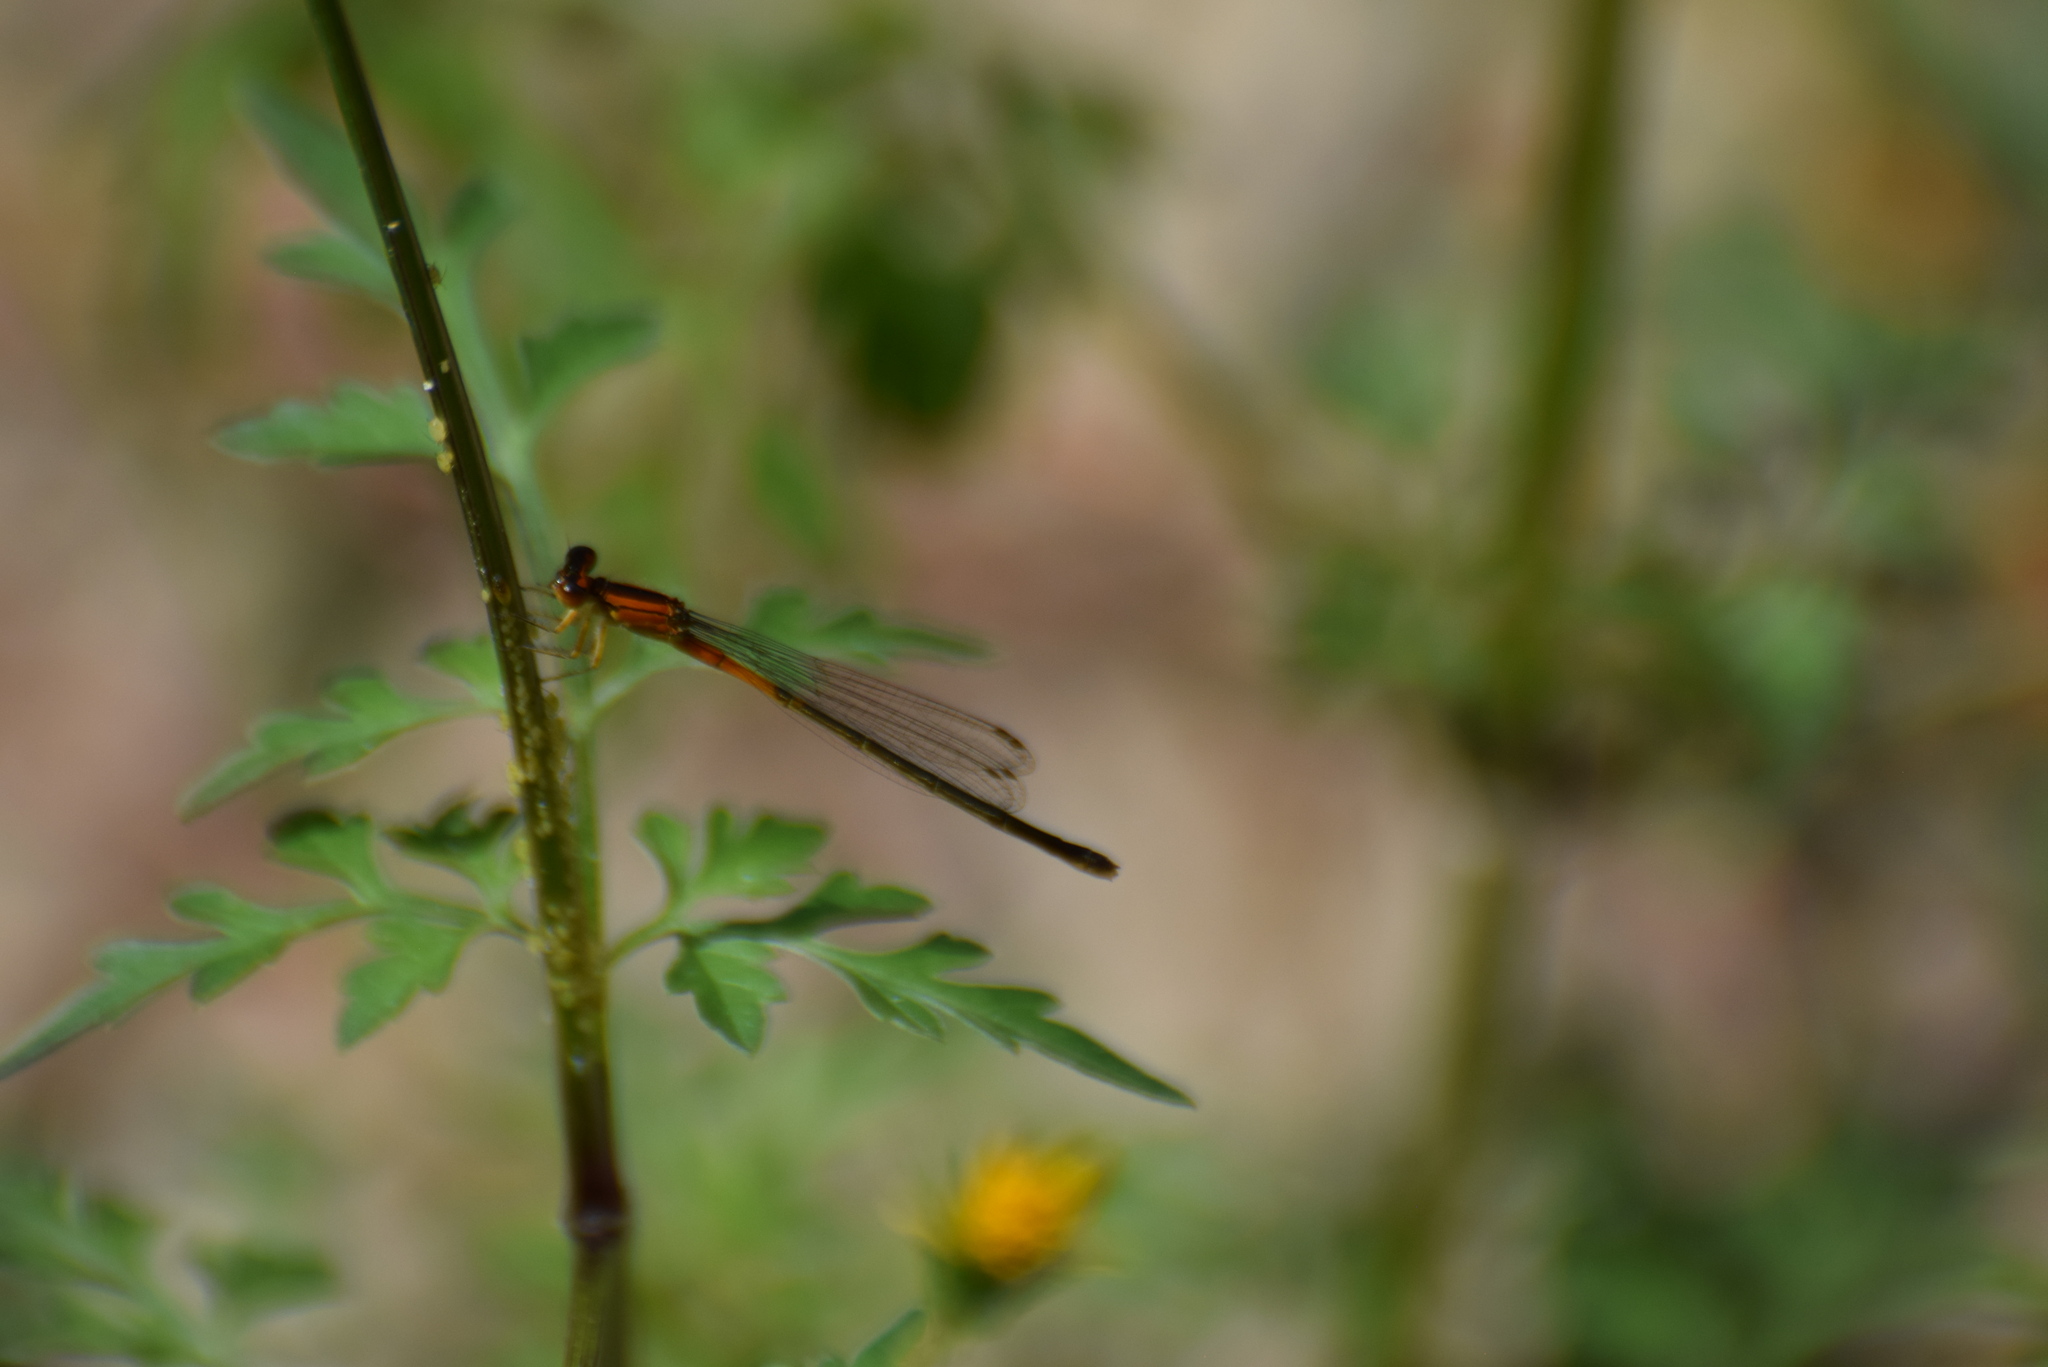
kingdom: Animalia
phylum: Arthropoda
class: Insecta
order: Odonata
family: Coenagrionidae
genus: Ischnura
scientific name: Ischnura verticalis
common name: Eastern forktail
